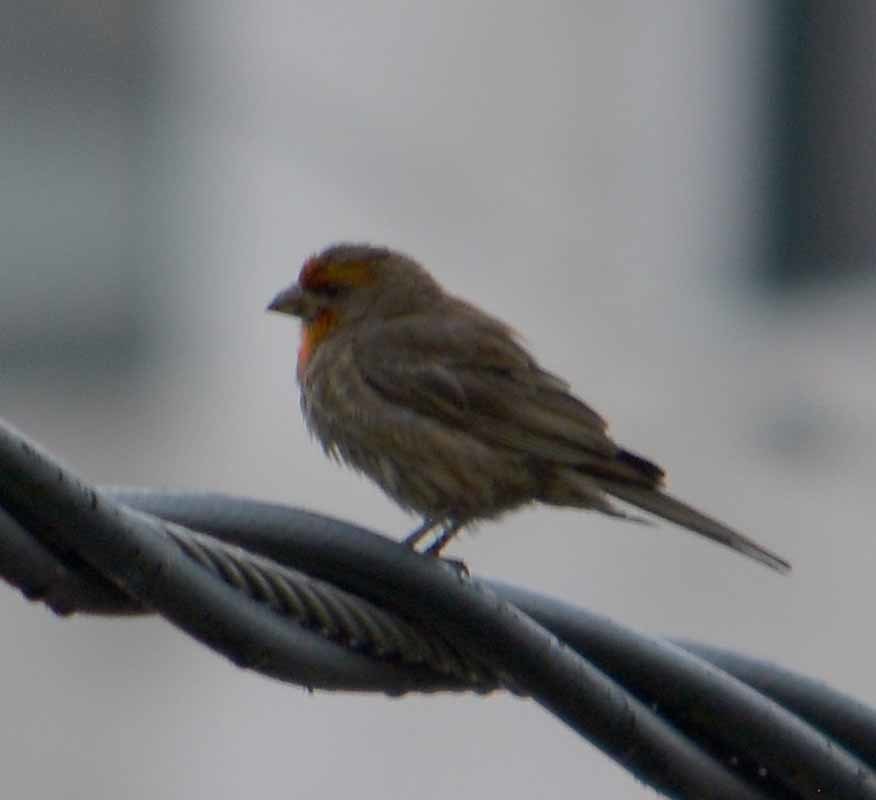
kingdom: Animalia
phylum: Chordata
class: Aves
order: Passeriformes
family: Fringillidae
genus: Haemorhous
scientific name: Haemorhous mexicanus
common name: House finch
